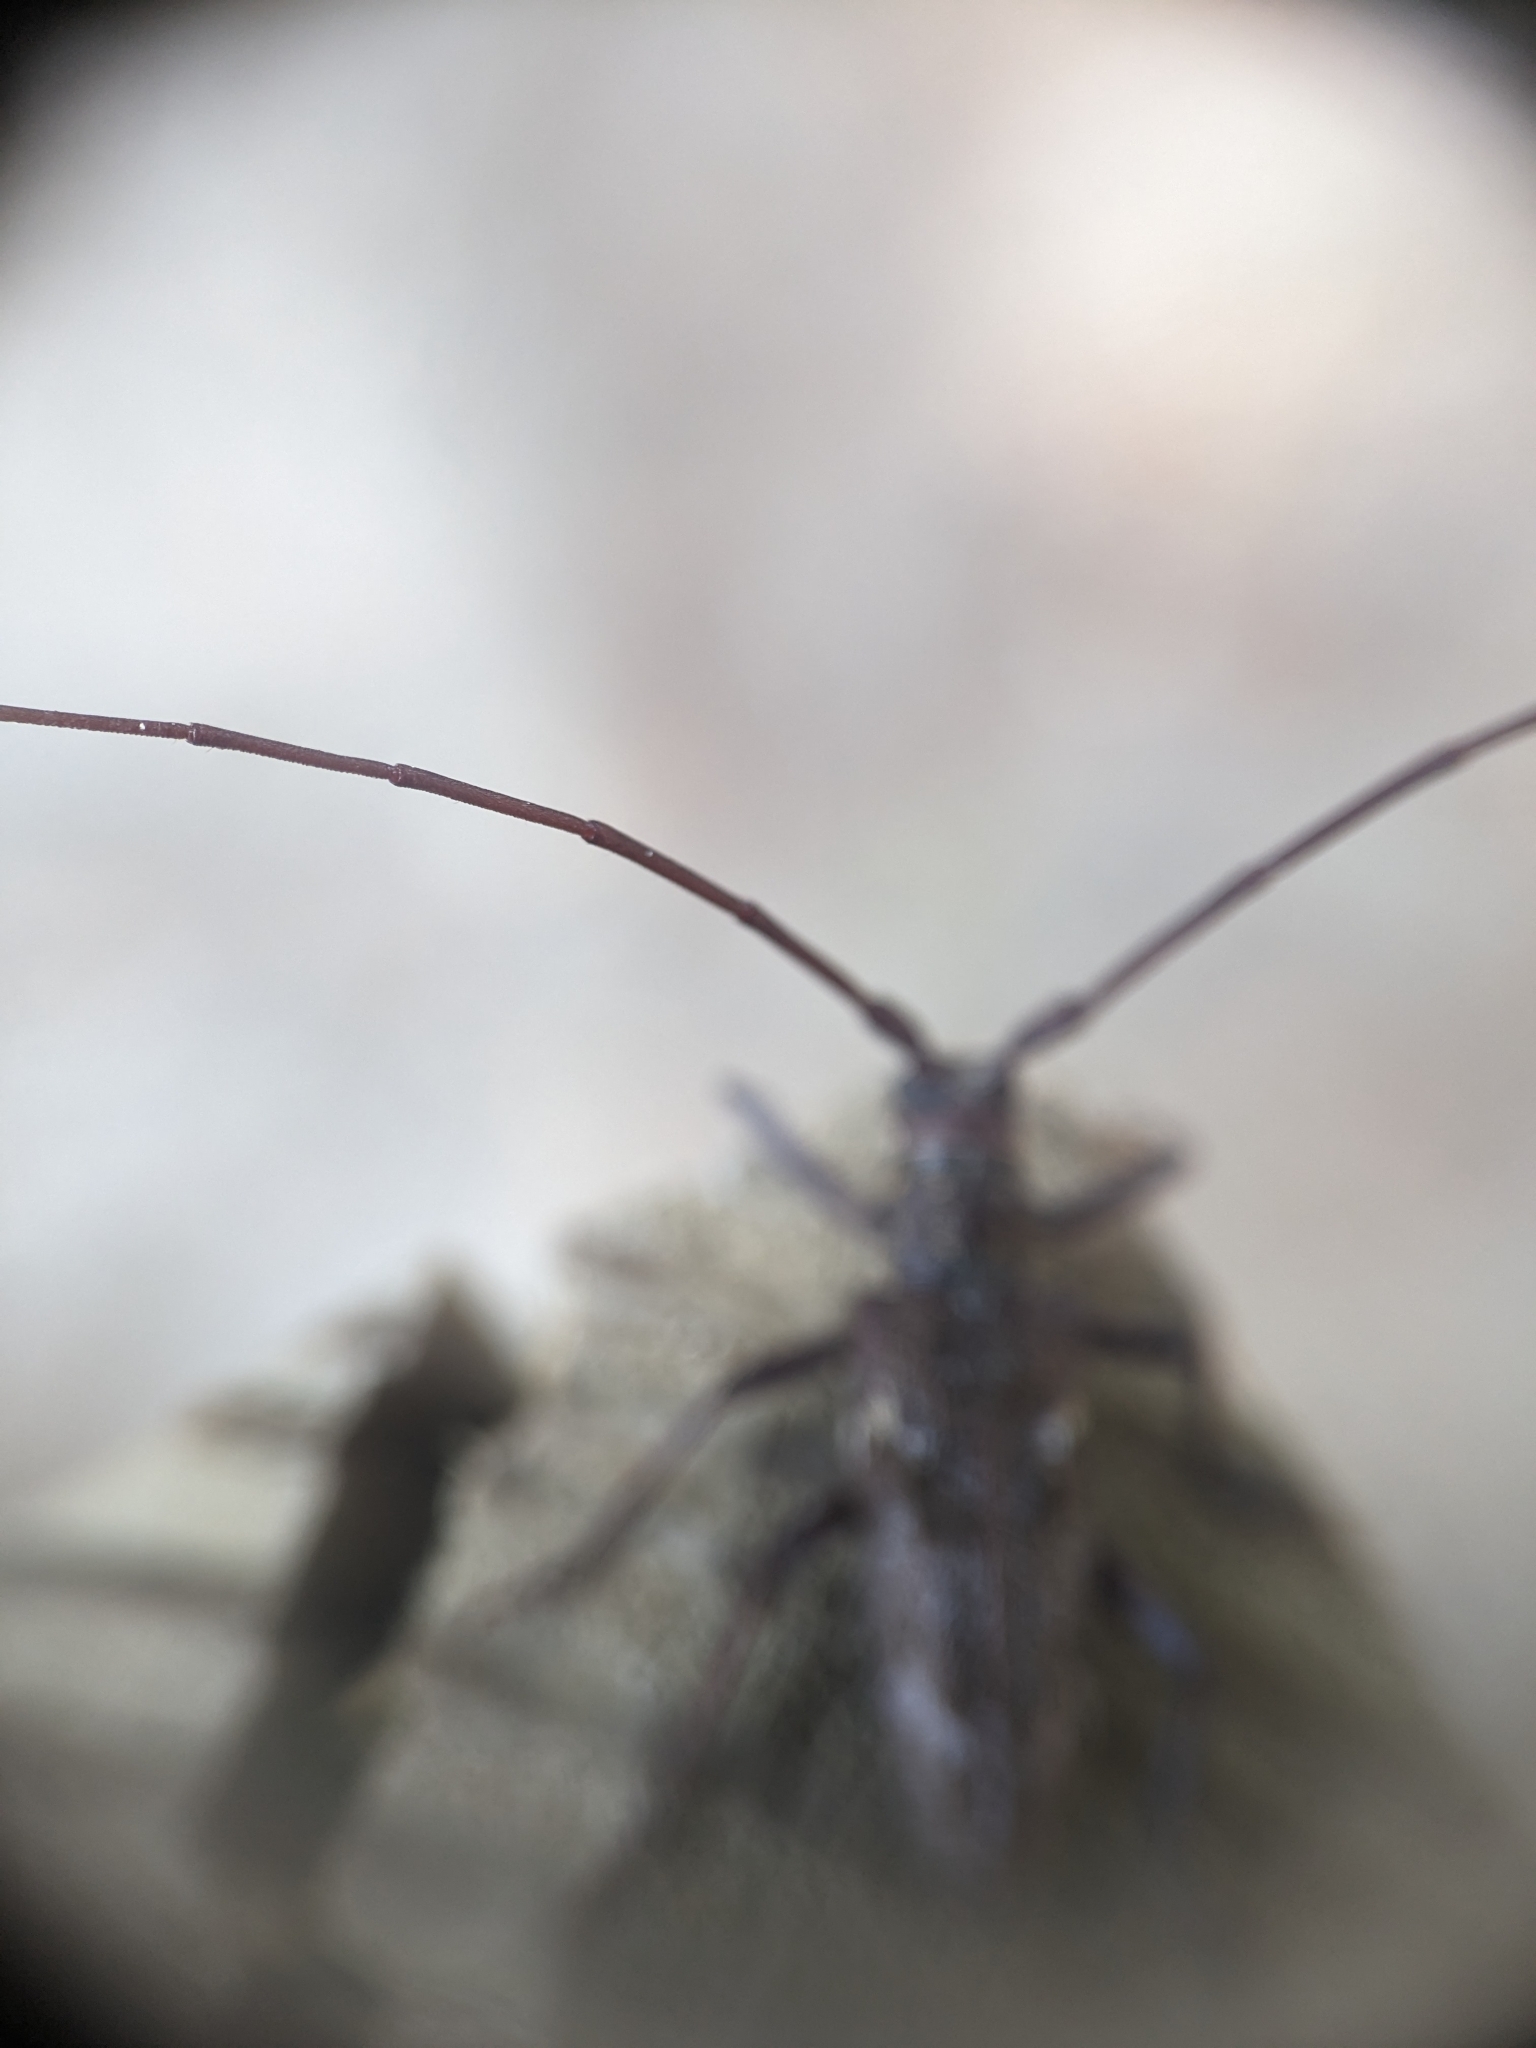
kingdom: Animalia
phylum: Arthropoda
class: Insecta
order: Coleoptera
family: Cerambycidae
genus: Monochamus
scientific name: Monochamus carolinensis
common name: Carolina pine sawyer
